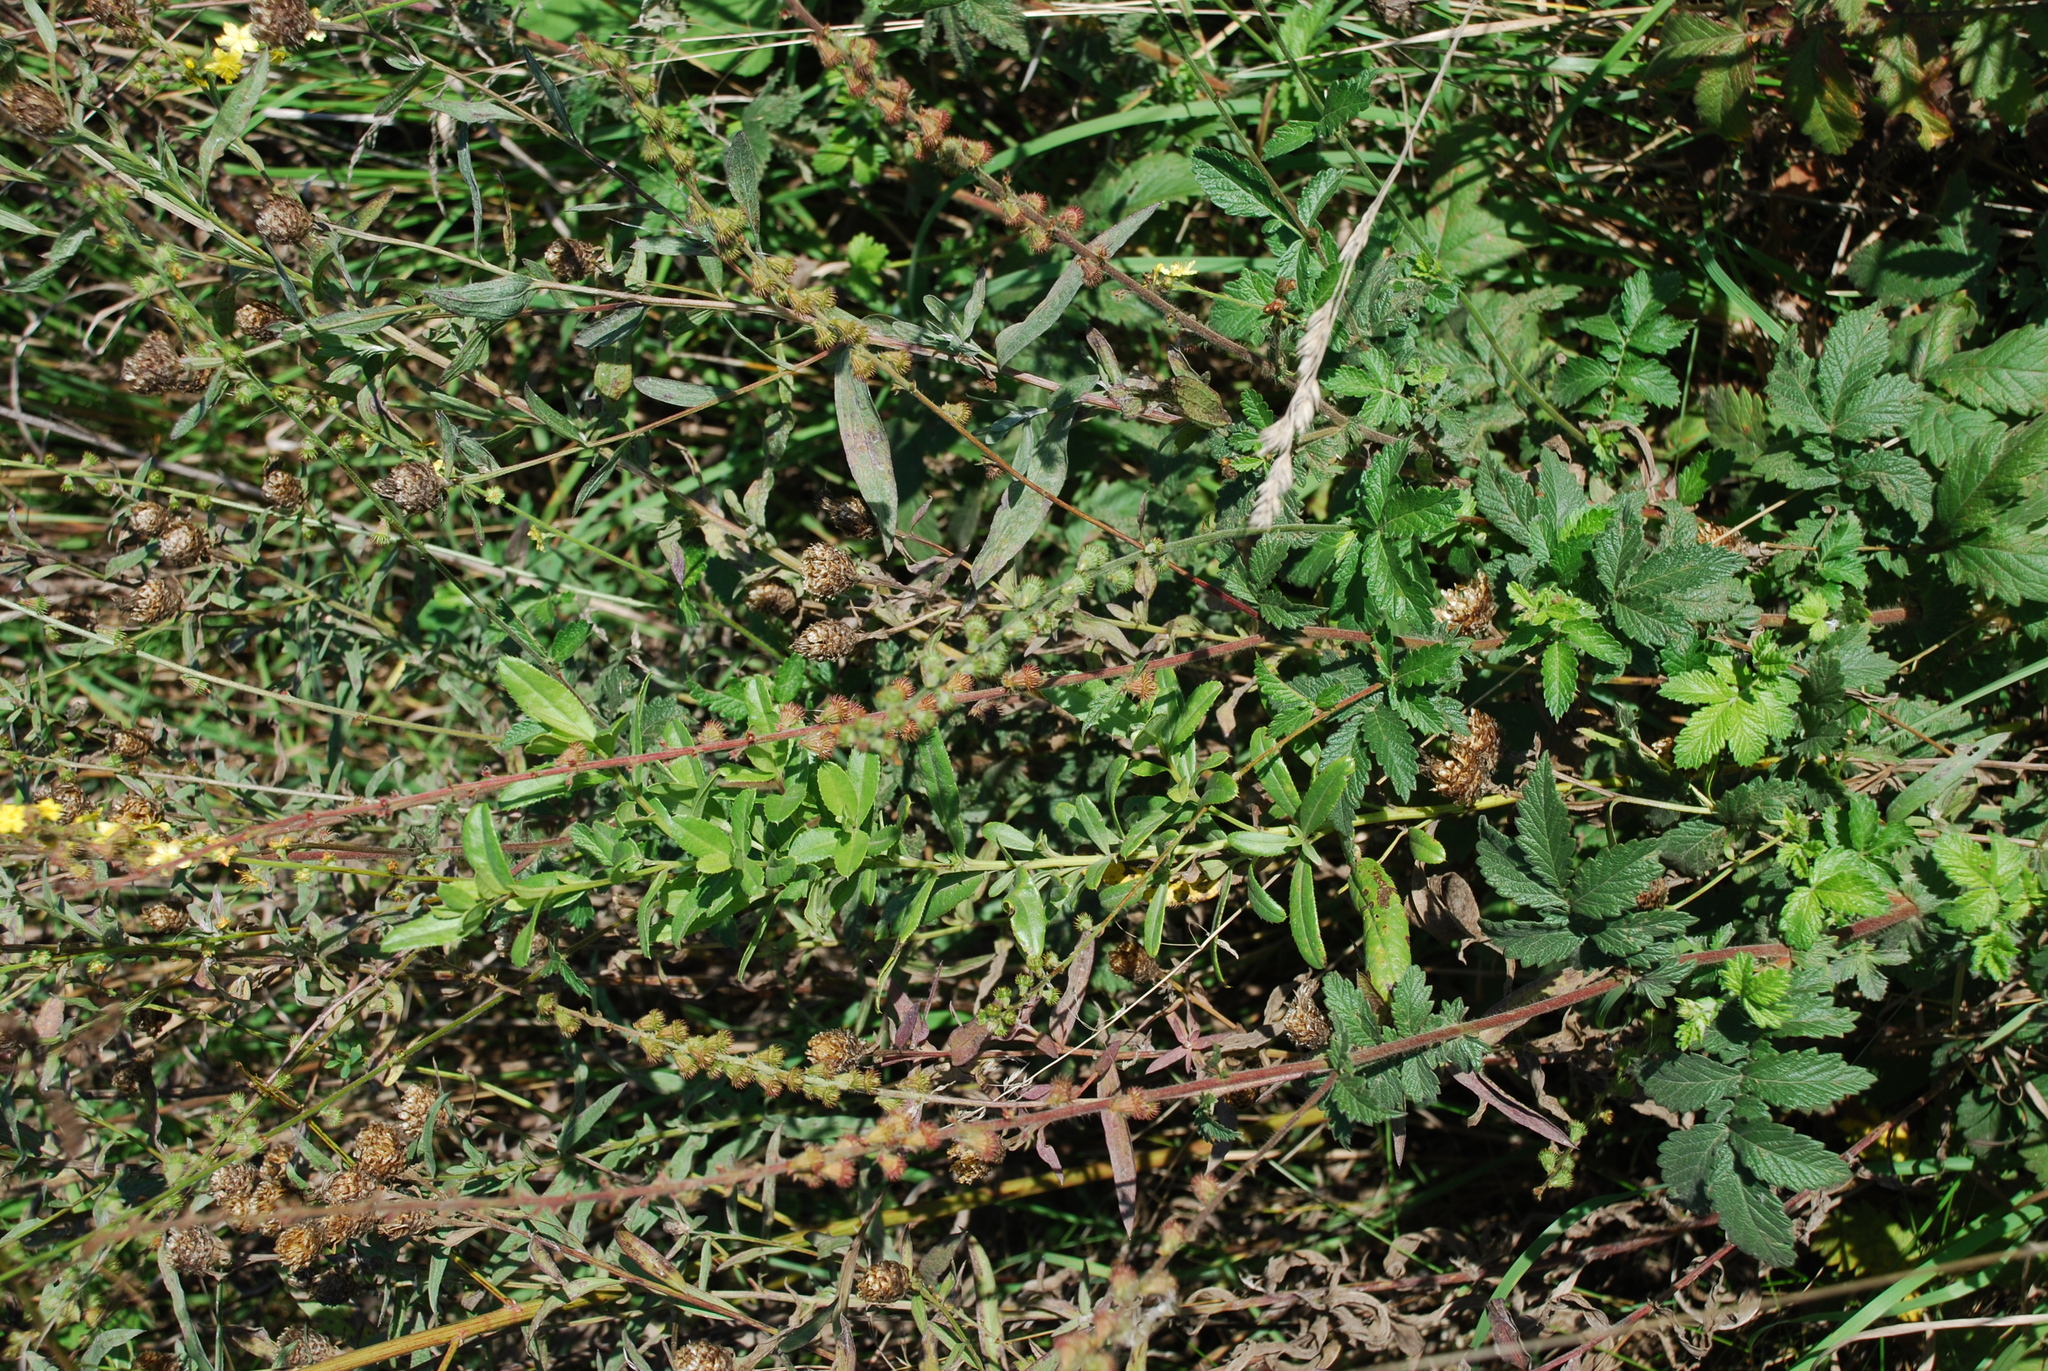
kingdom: Plantae
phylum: Tracheophyta
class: Magnoliopsida
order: Rosales
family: Rosaceae
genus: Agrimonia
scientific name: Agrimonia eupatoria
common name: Agrimony
